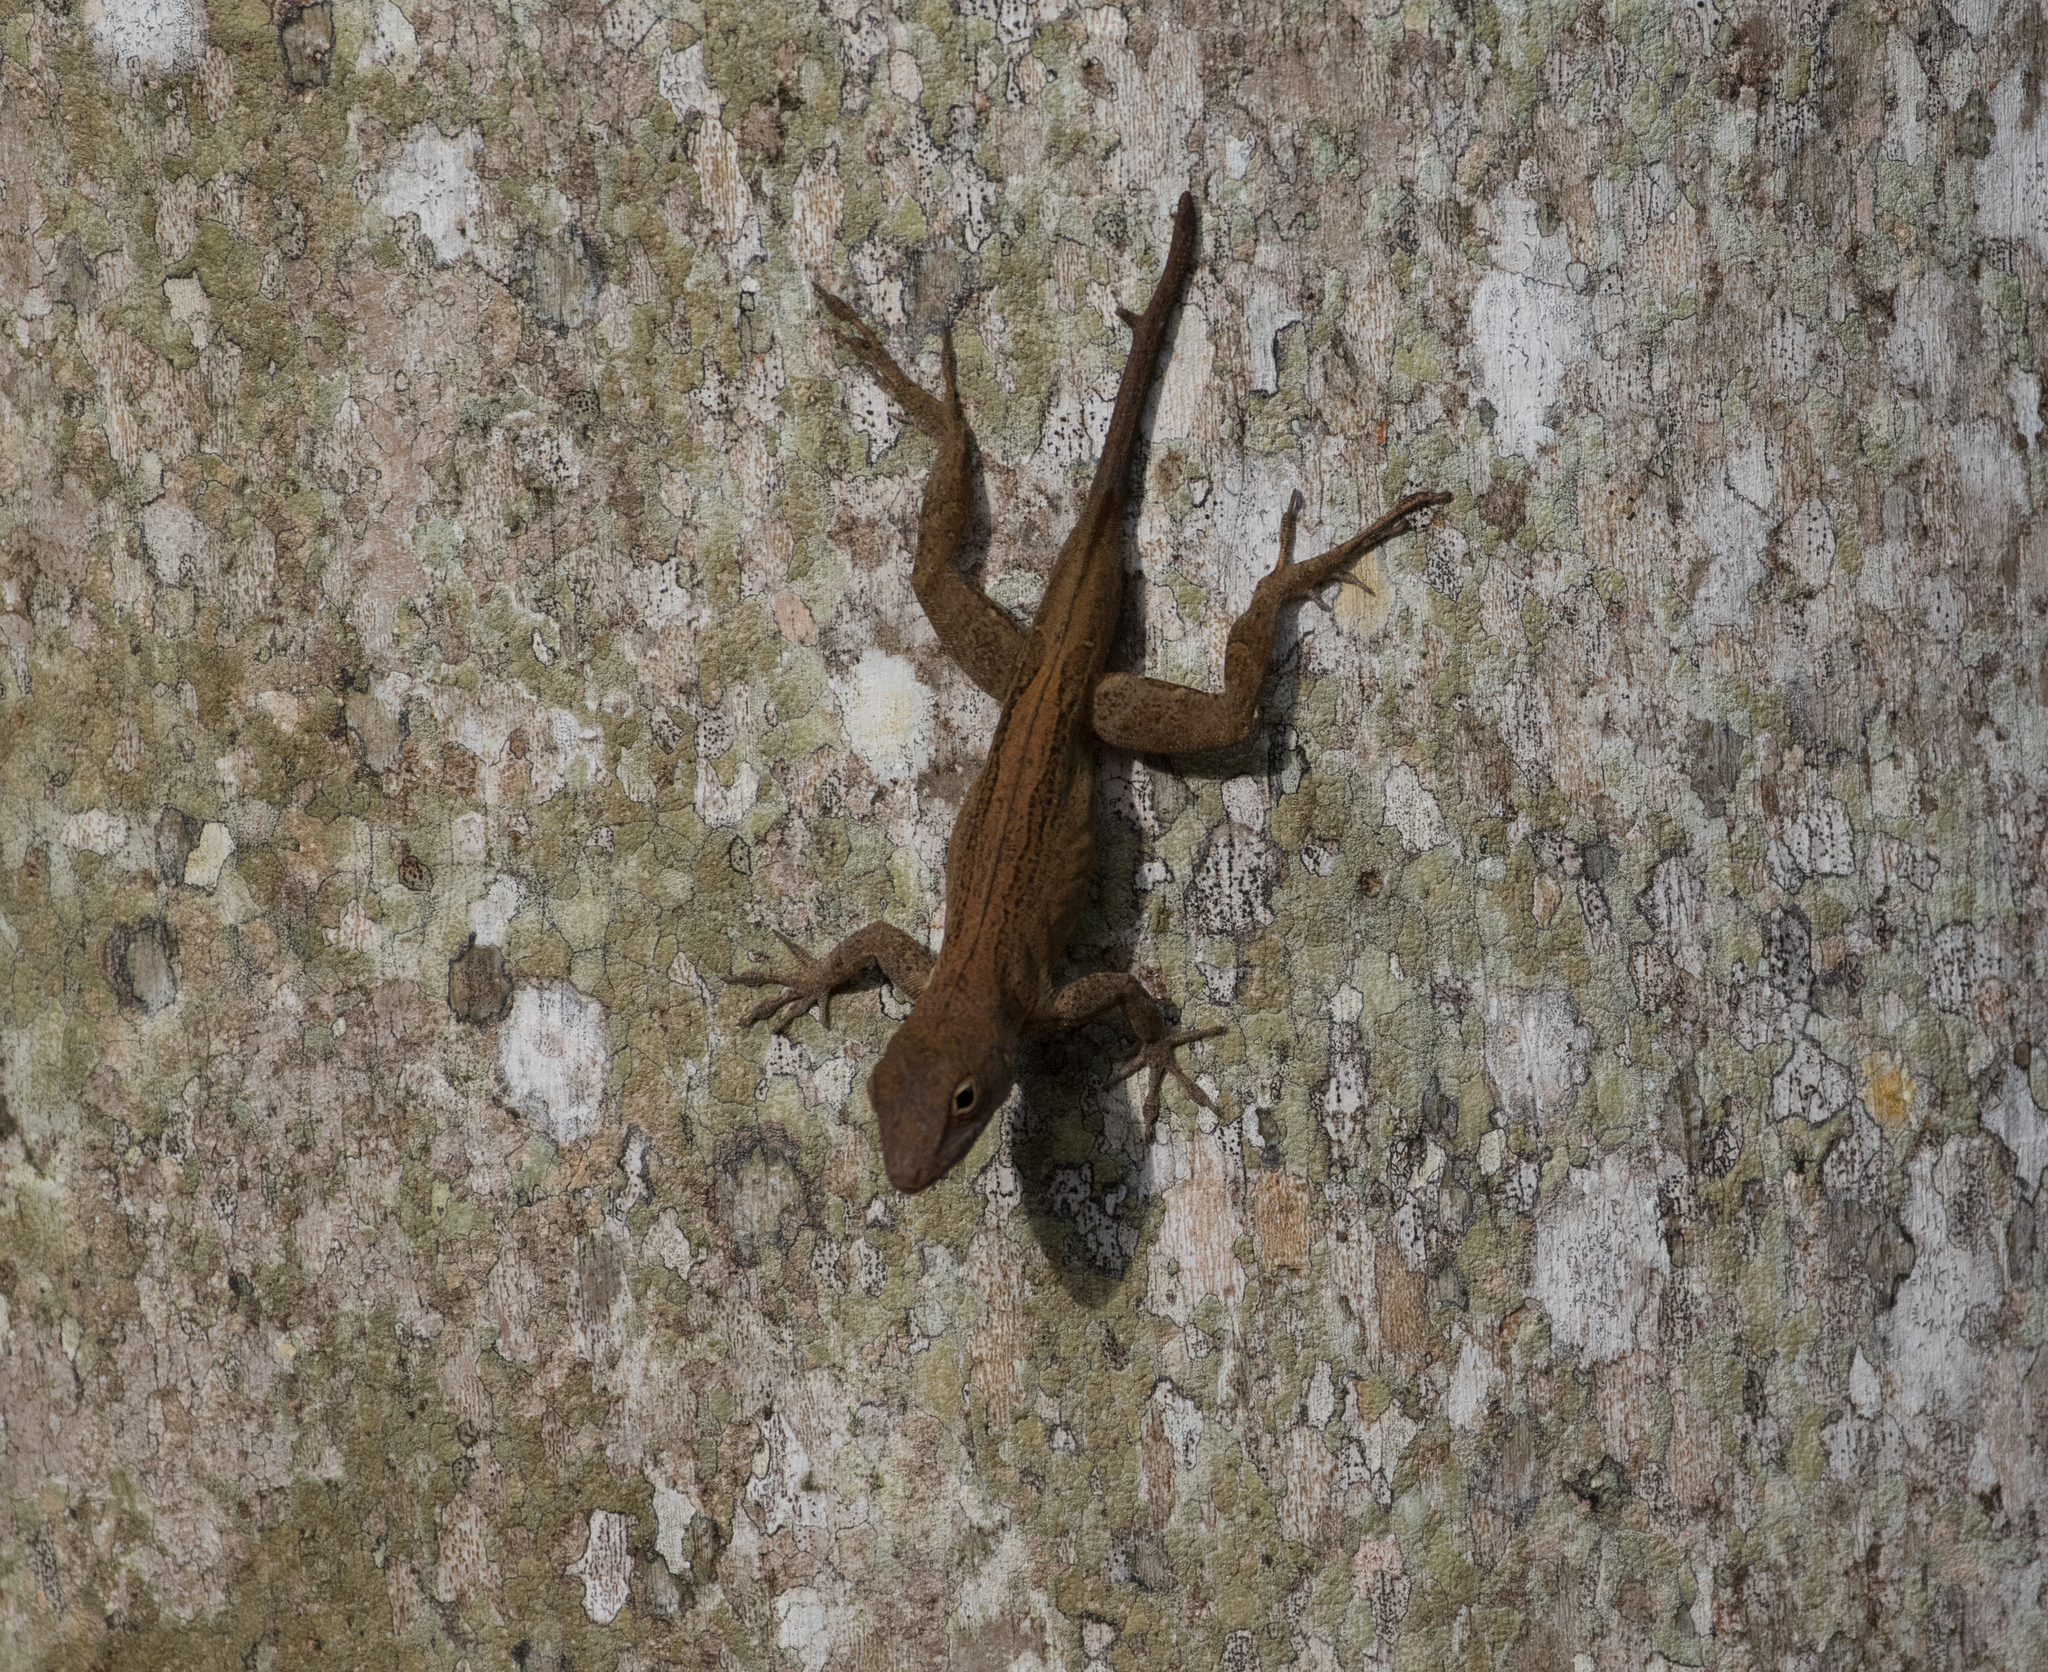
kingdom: Animalia
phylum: Chordata
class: Squamata
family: Dactyloidae
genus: Anolis
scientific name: Anolis cristatellus
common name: Crested anole
